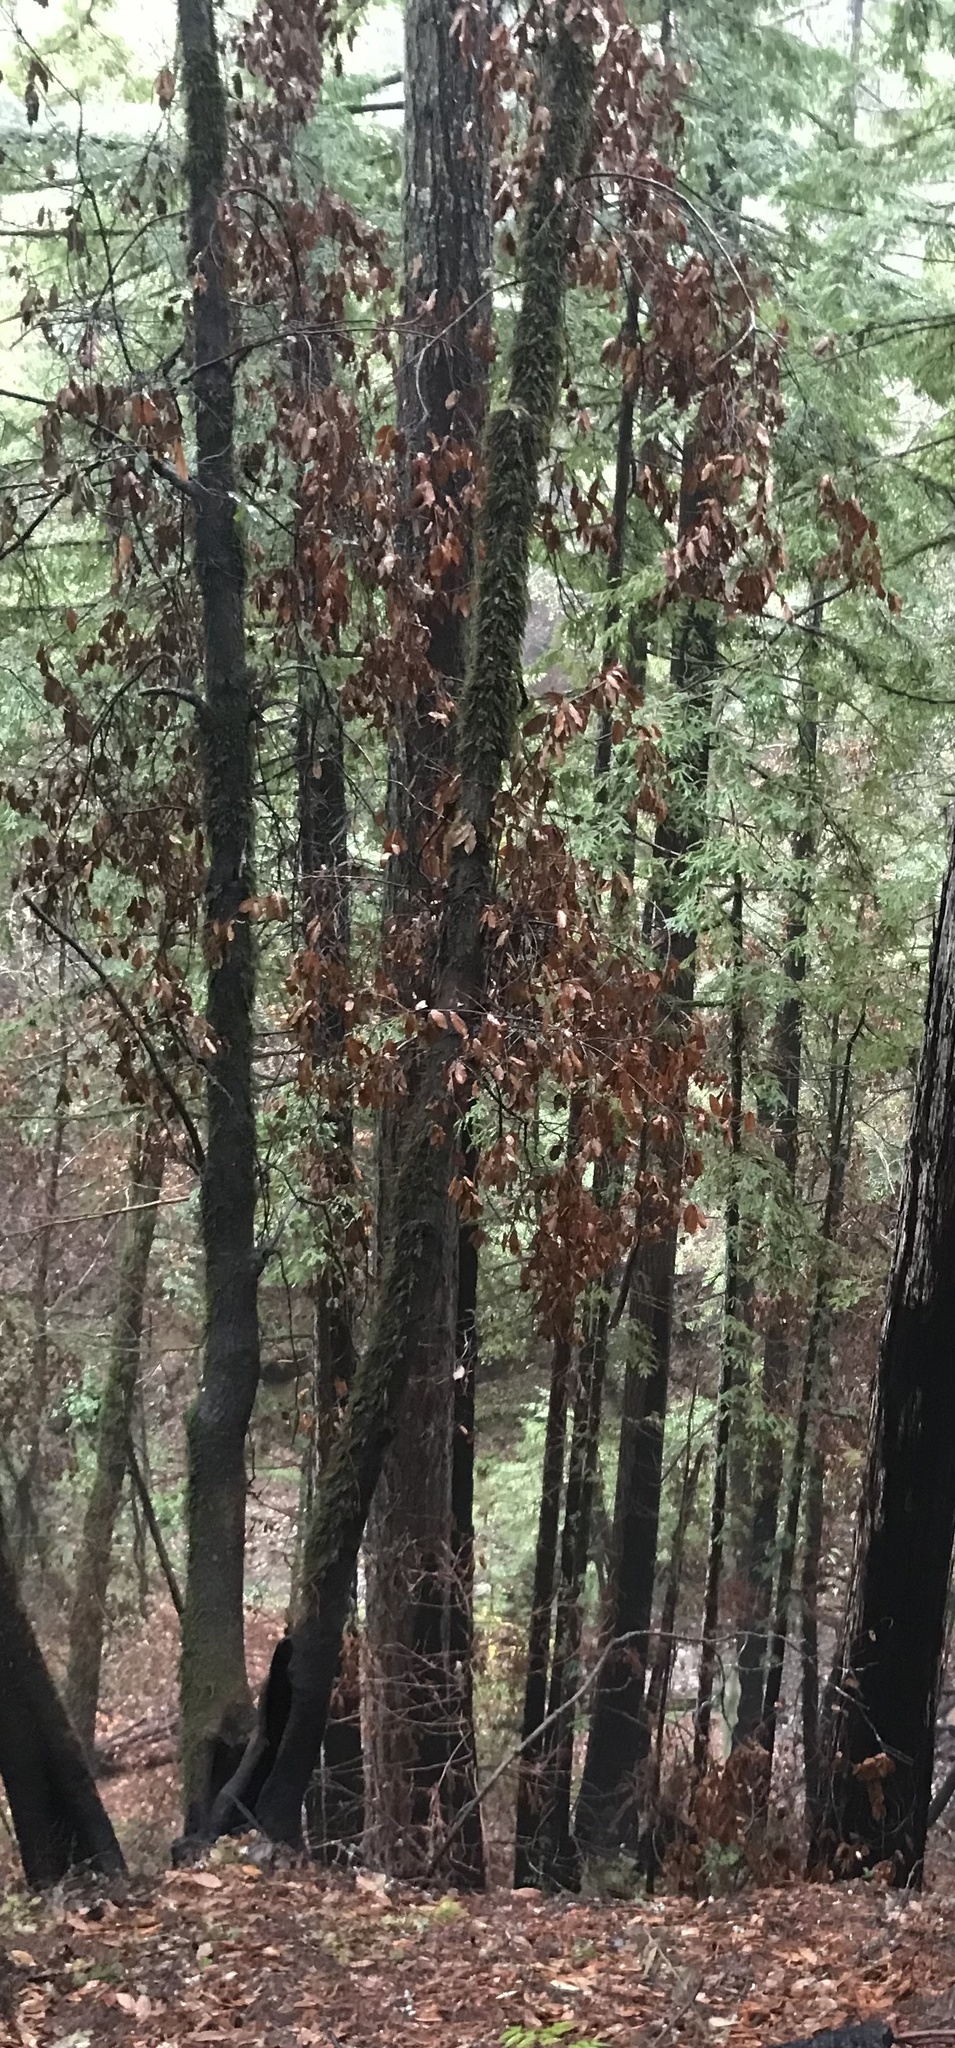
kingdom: Plantae
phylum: Tracheophyta
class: Magnoliopsida
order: Fagales
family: Fagaceae
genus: Notholithocarpus
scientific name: Notholithocarpus densiflorus
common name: Tan bark oak
